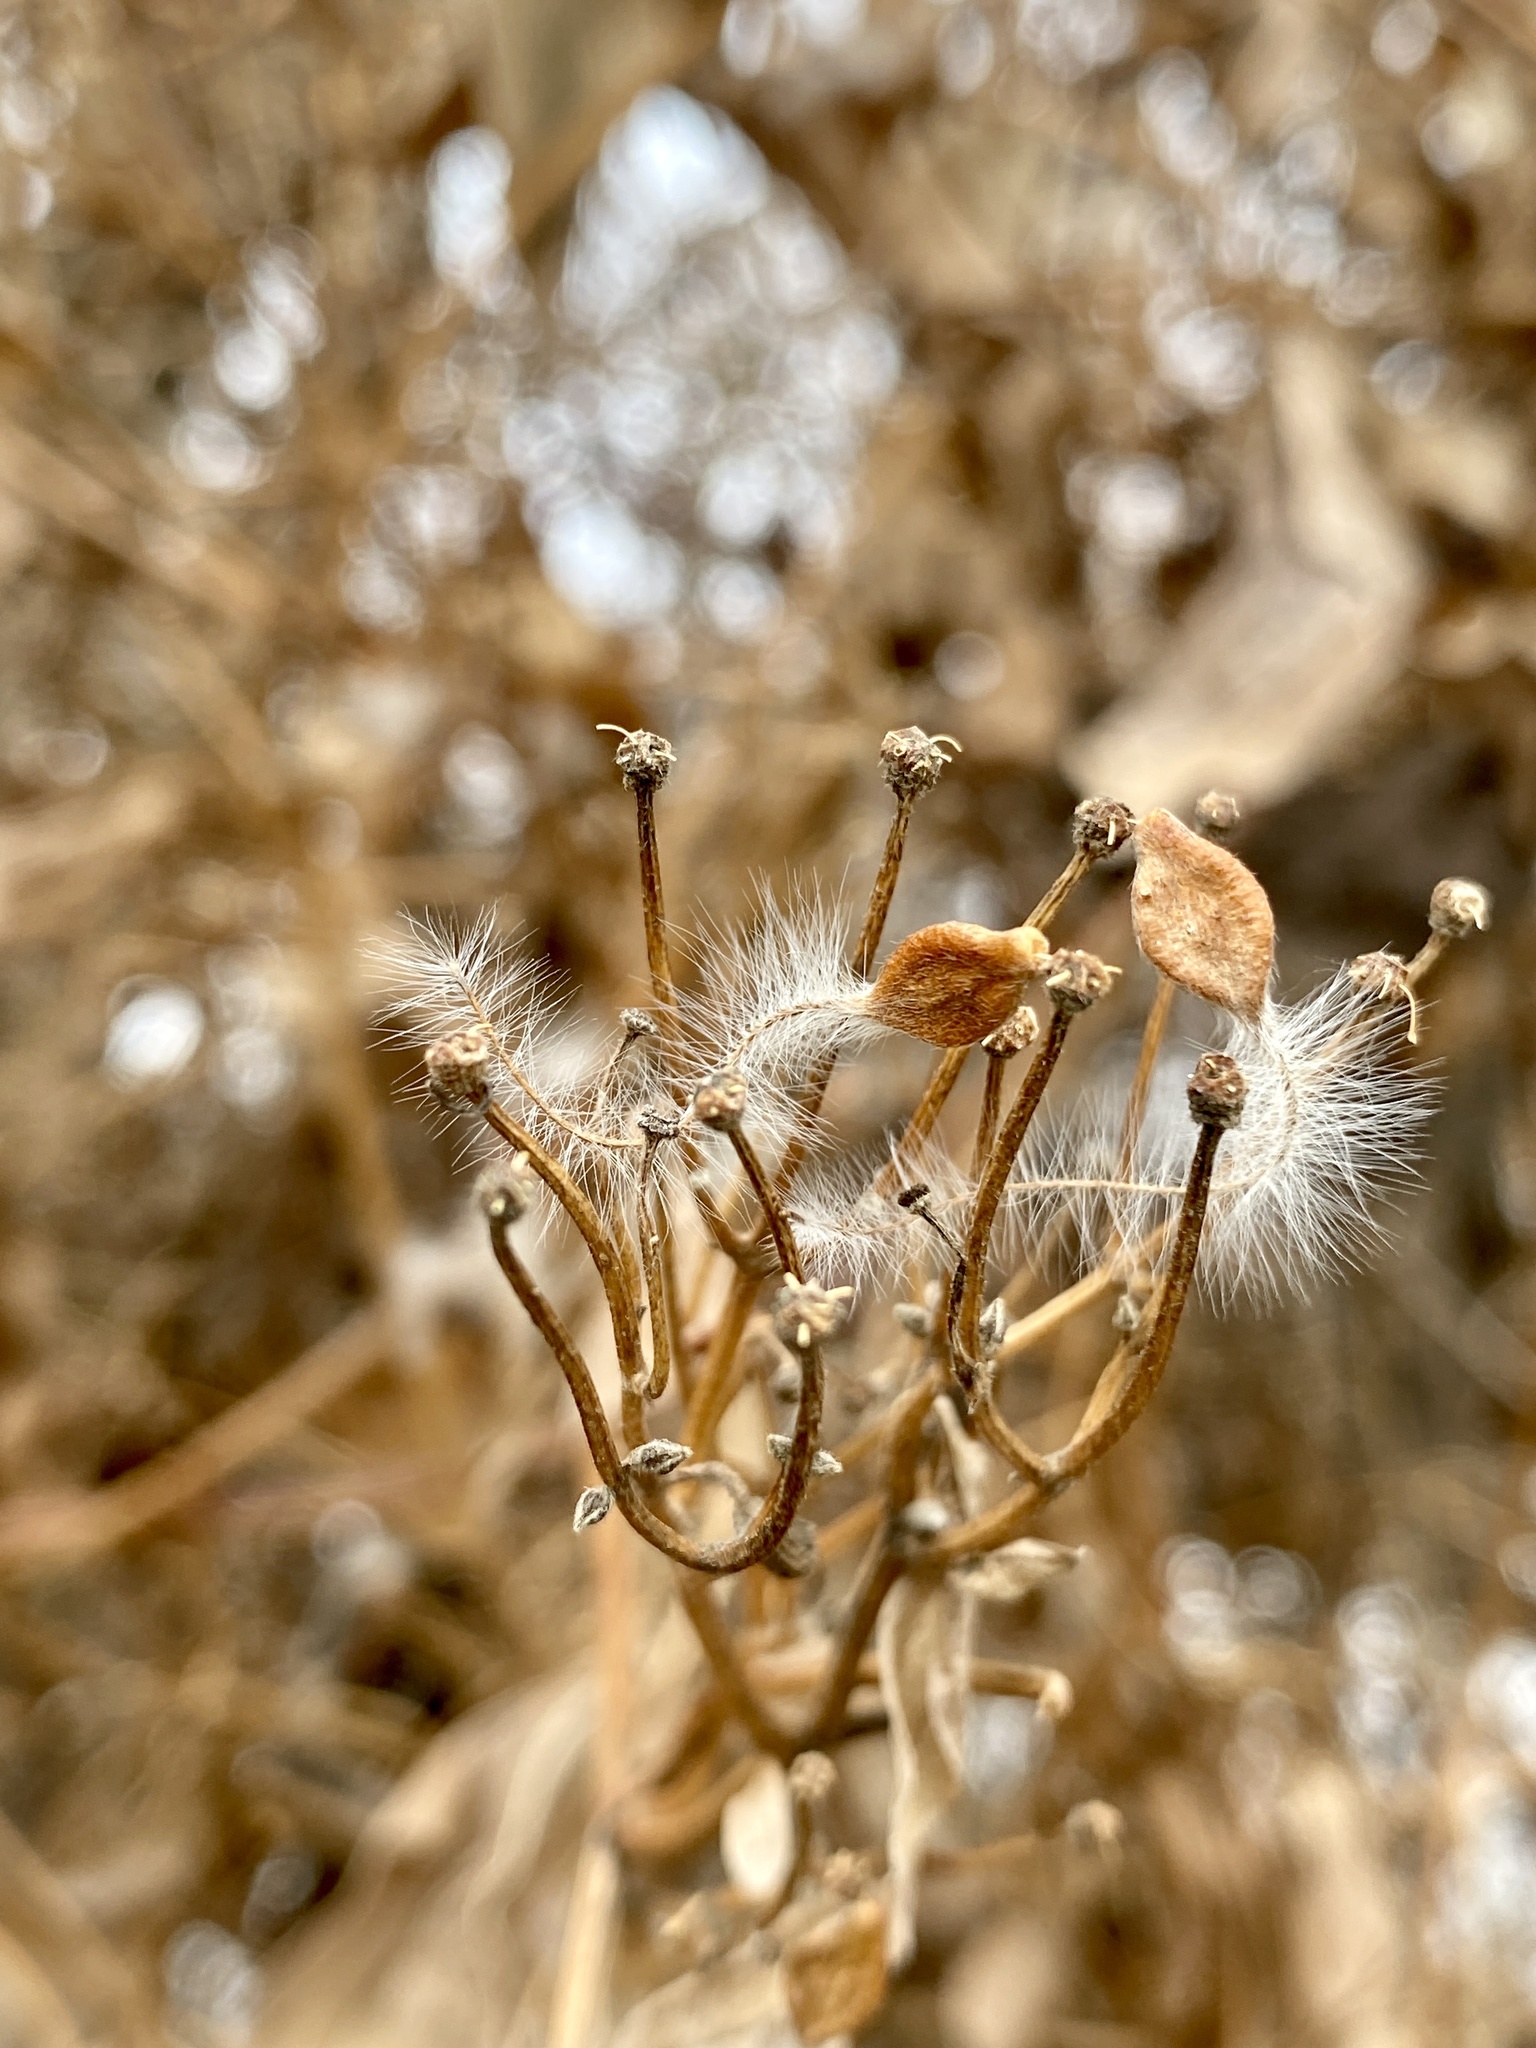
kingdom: Plantae
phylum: Tracheophyta
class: Magnoliopsida
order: Ranunculales
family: Ranunculaceae
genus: Clematis
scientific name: Clematis terniflora
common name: Sweet autumn clematis
